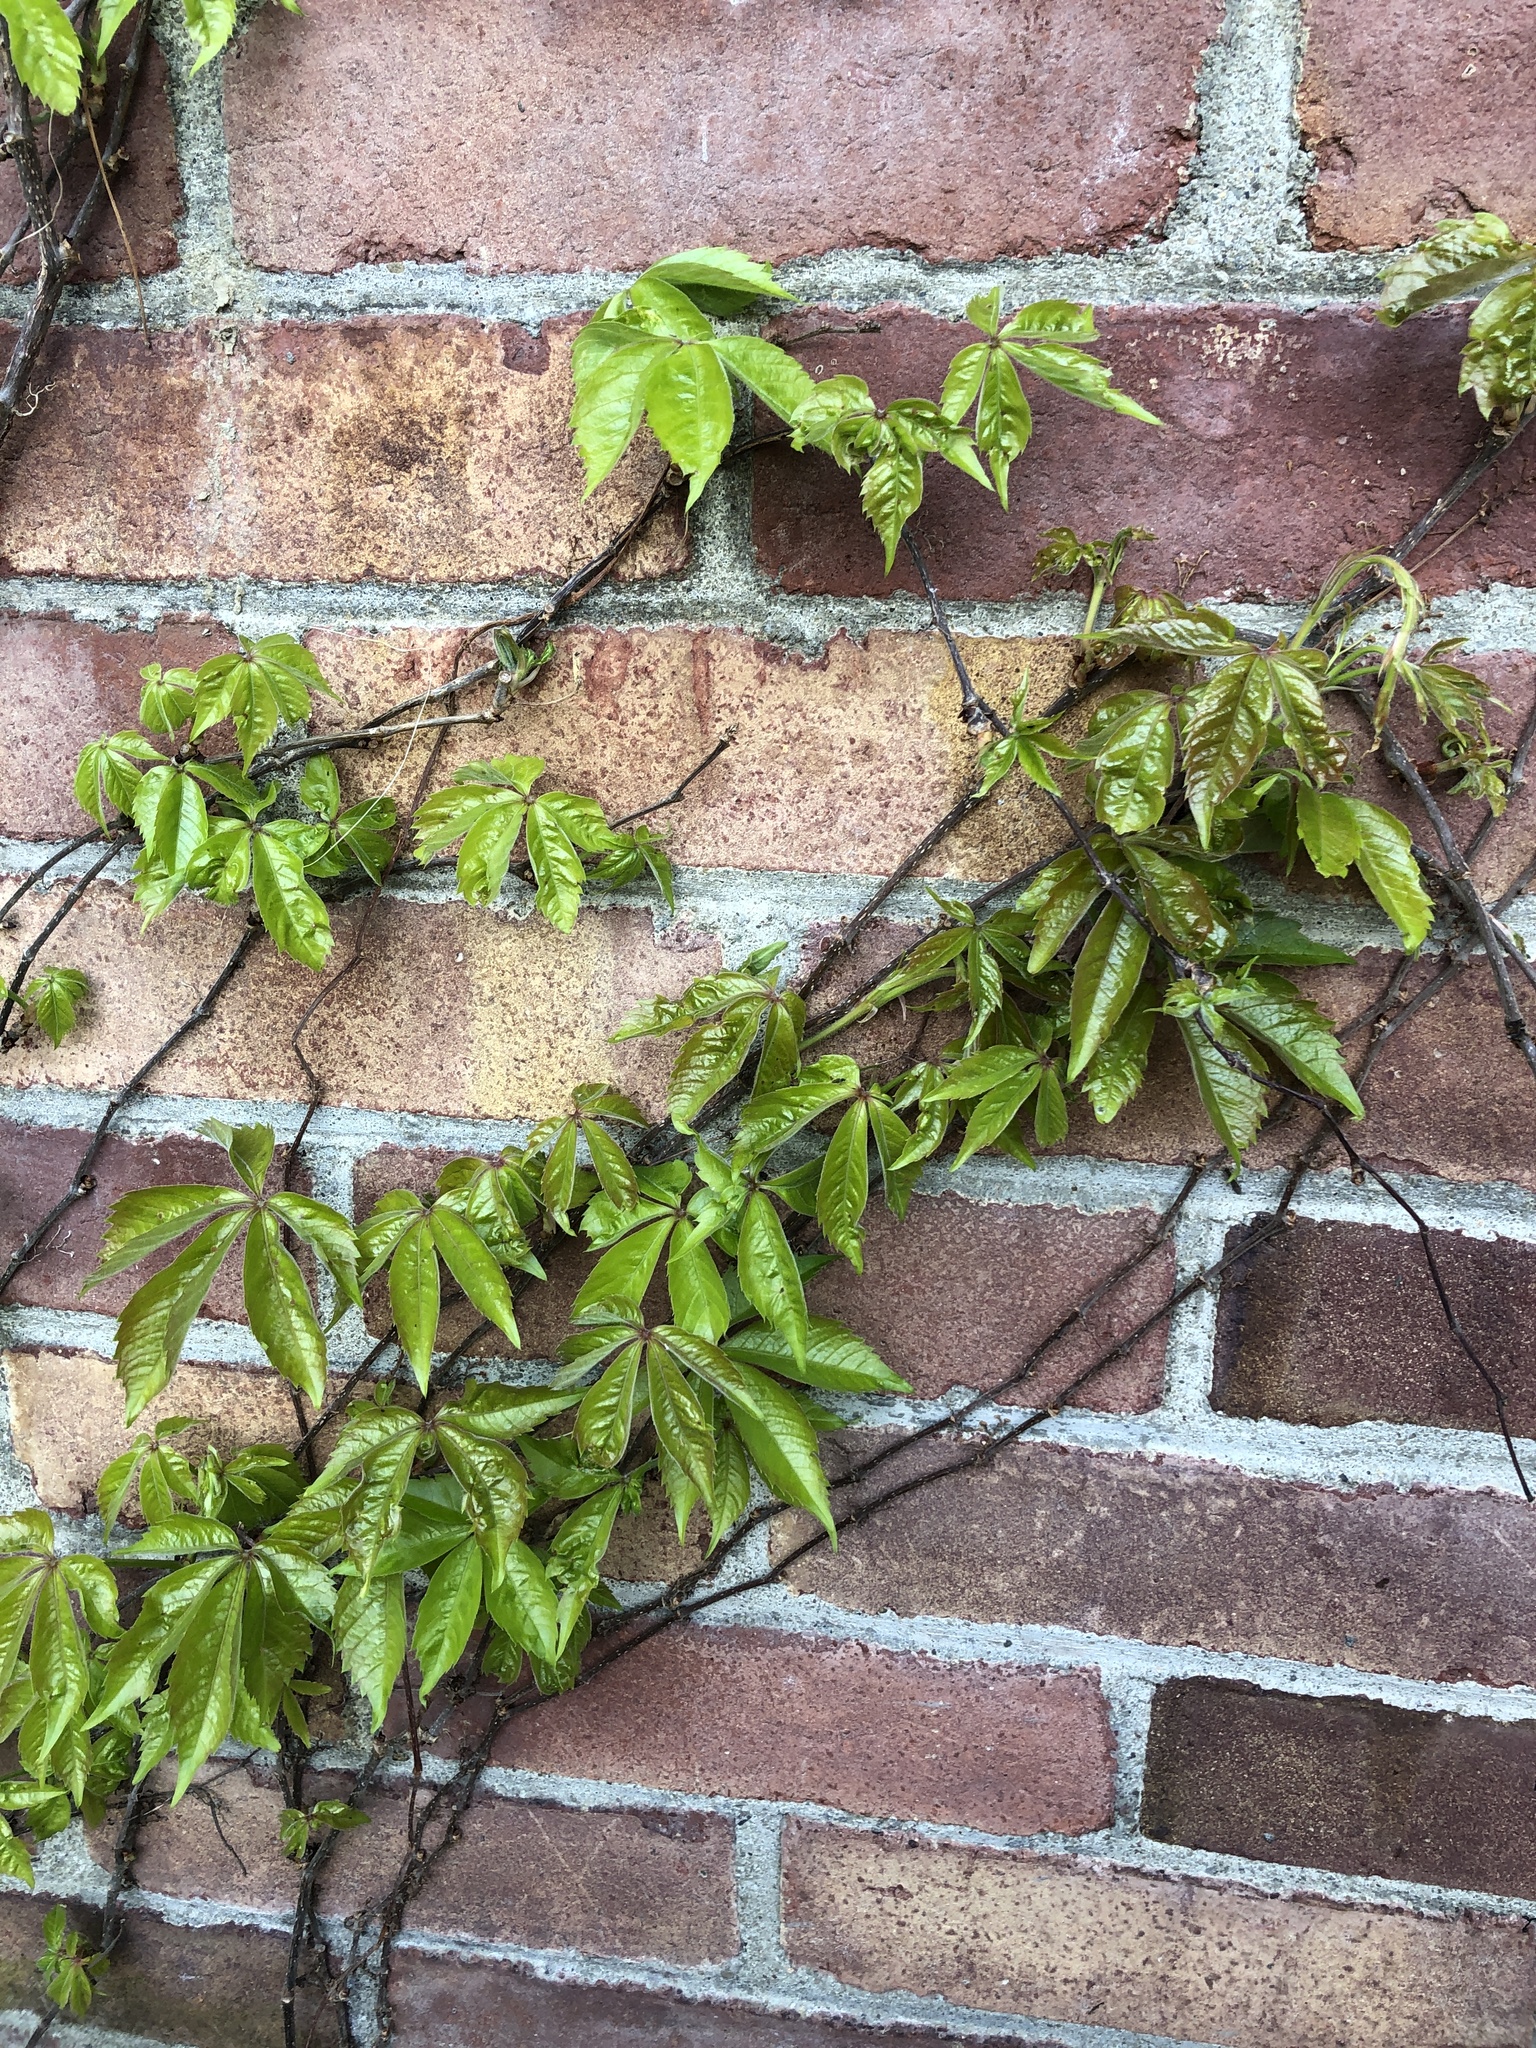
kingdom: Plantae
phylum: Tracheophyta
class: Magnoliopsida
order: Vitales
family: Vitaceae
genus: Parthenocissus
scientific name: Parthenocissus quinquefolia
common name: Virginia-creeper
